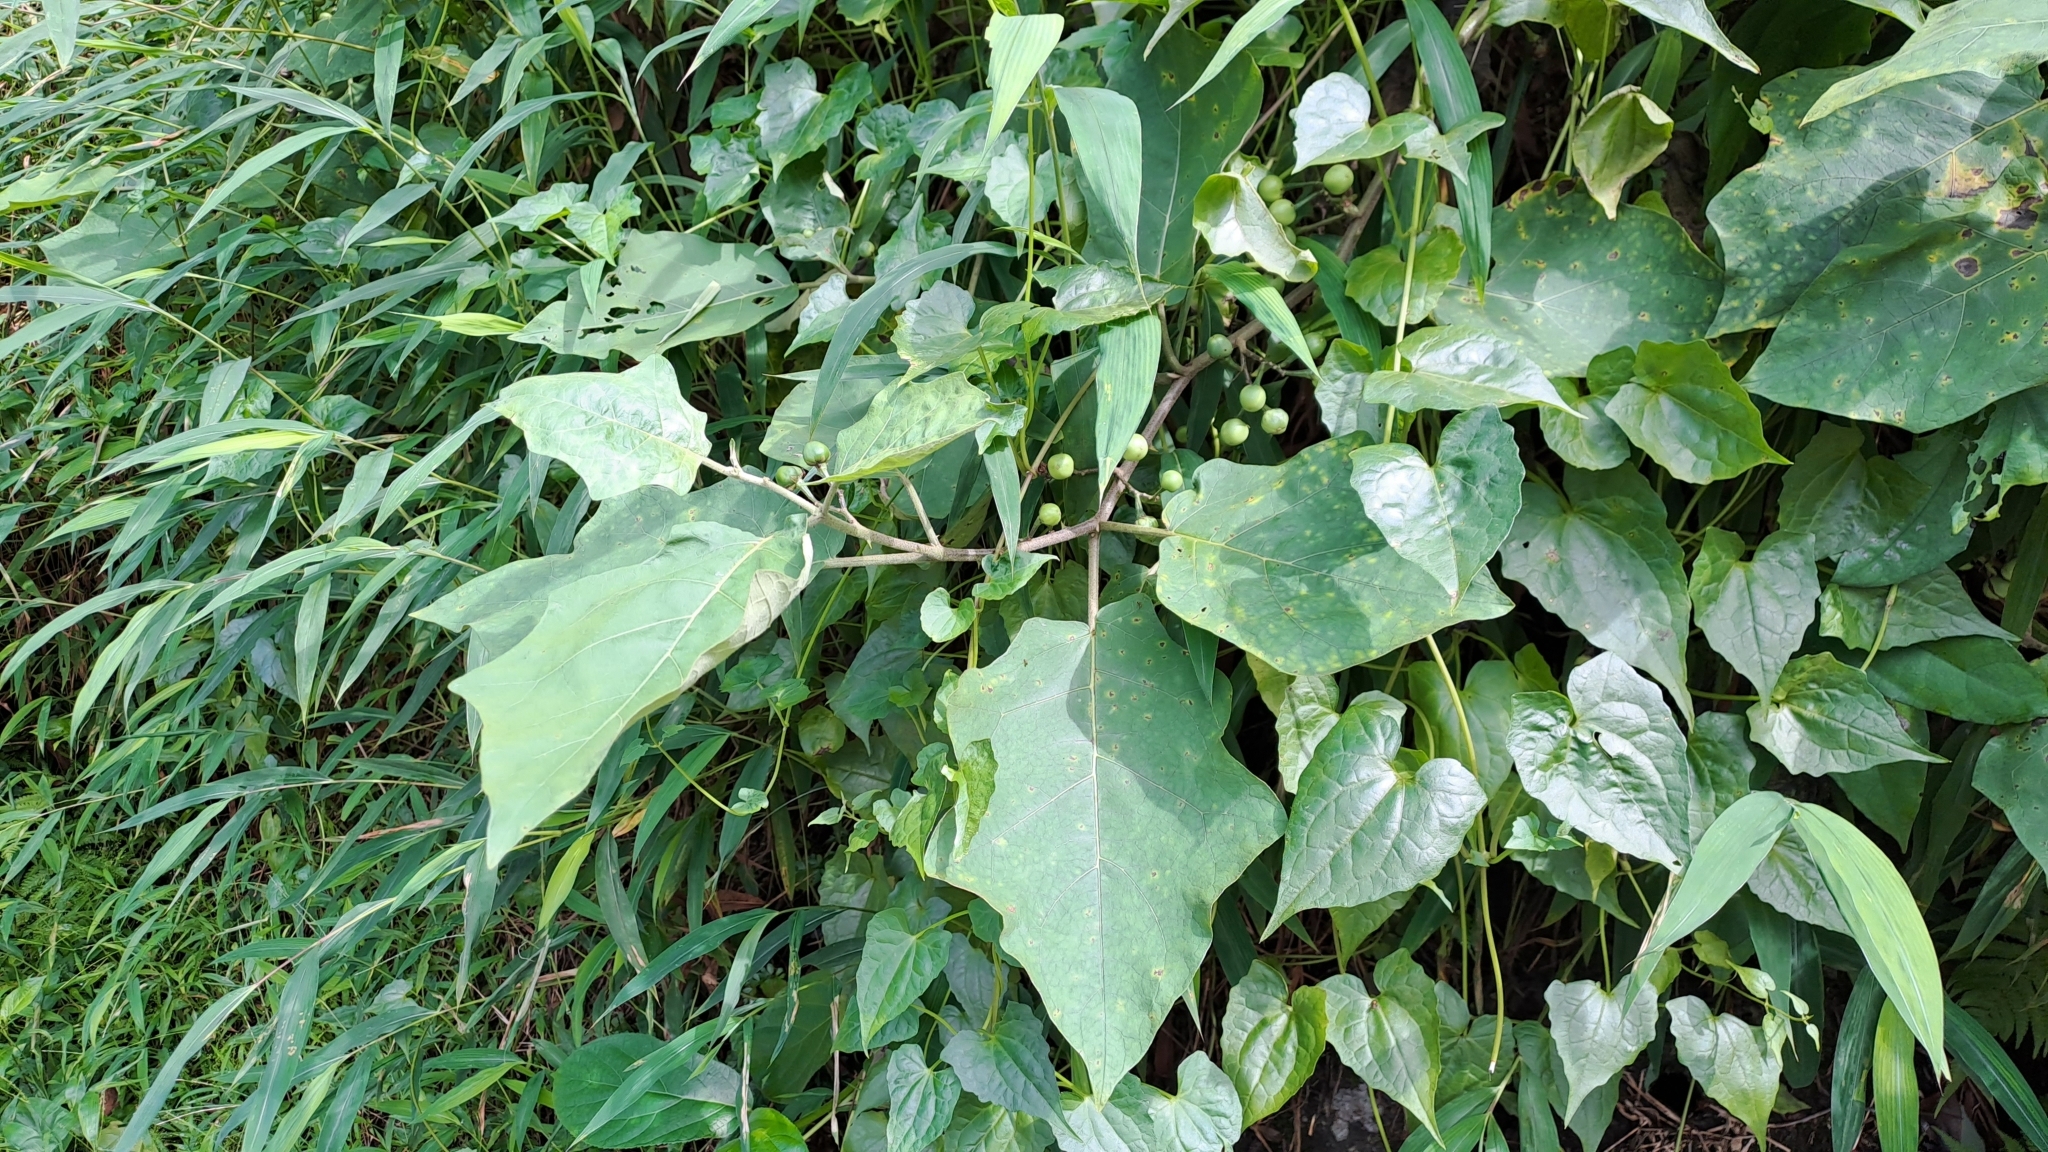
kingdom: Plantae
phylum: Tracheophyta
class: Magnoliopsida
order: Solanales
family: Solanaceae
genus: Solanum
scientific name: Solanum torvum
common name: Turkey berry
